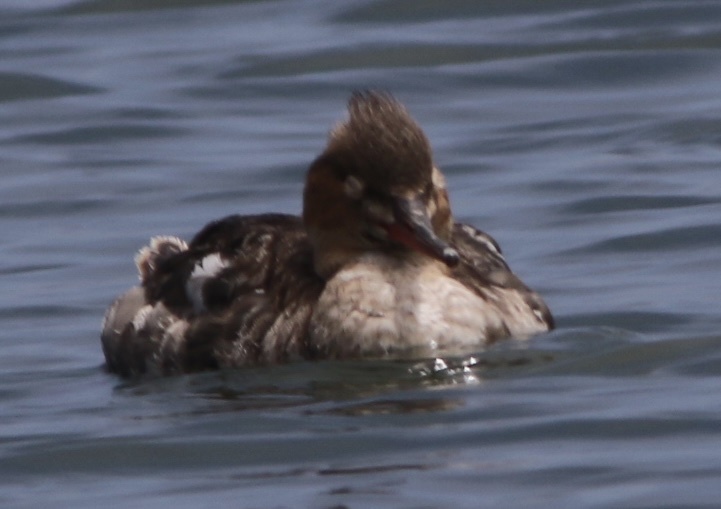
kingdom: Animalia
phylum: Chordata
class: Aves
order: Anseriformes
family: Anatidae
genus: Mergus
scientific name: Mergus serrator
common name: Red-breasted merganser
